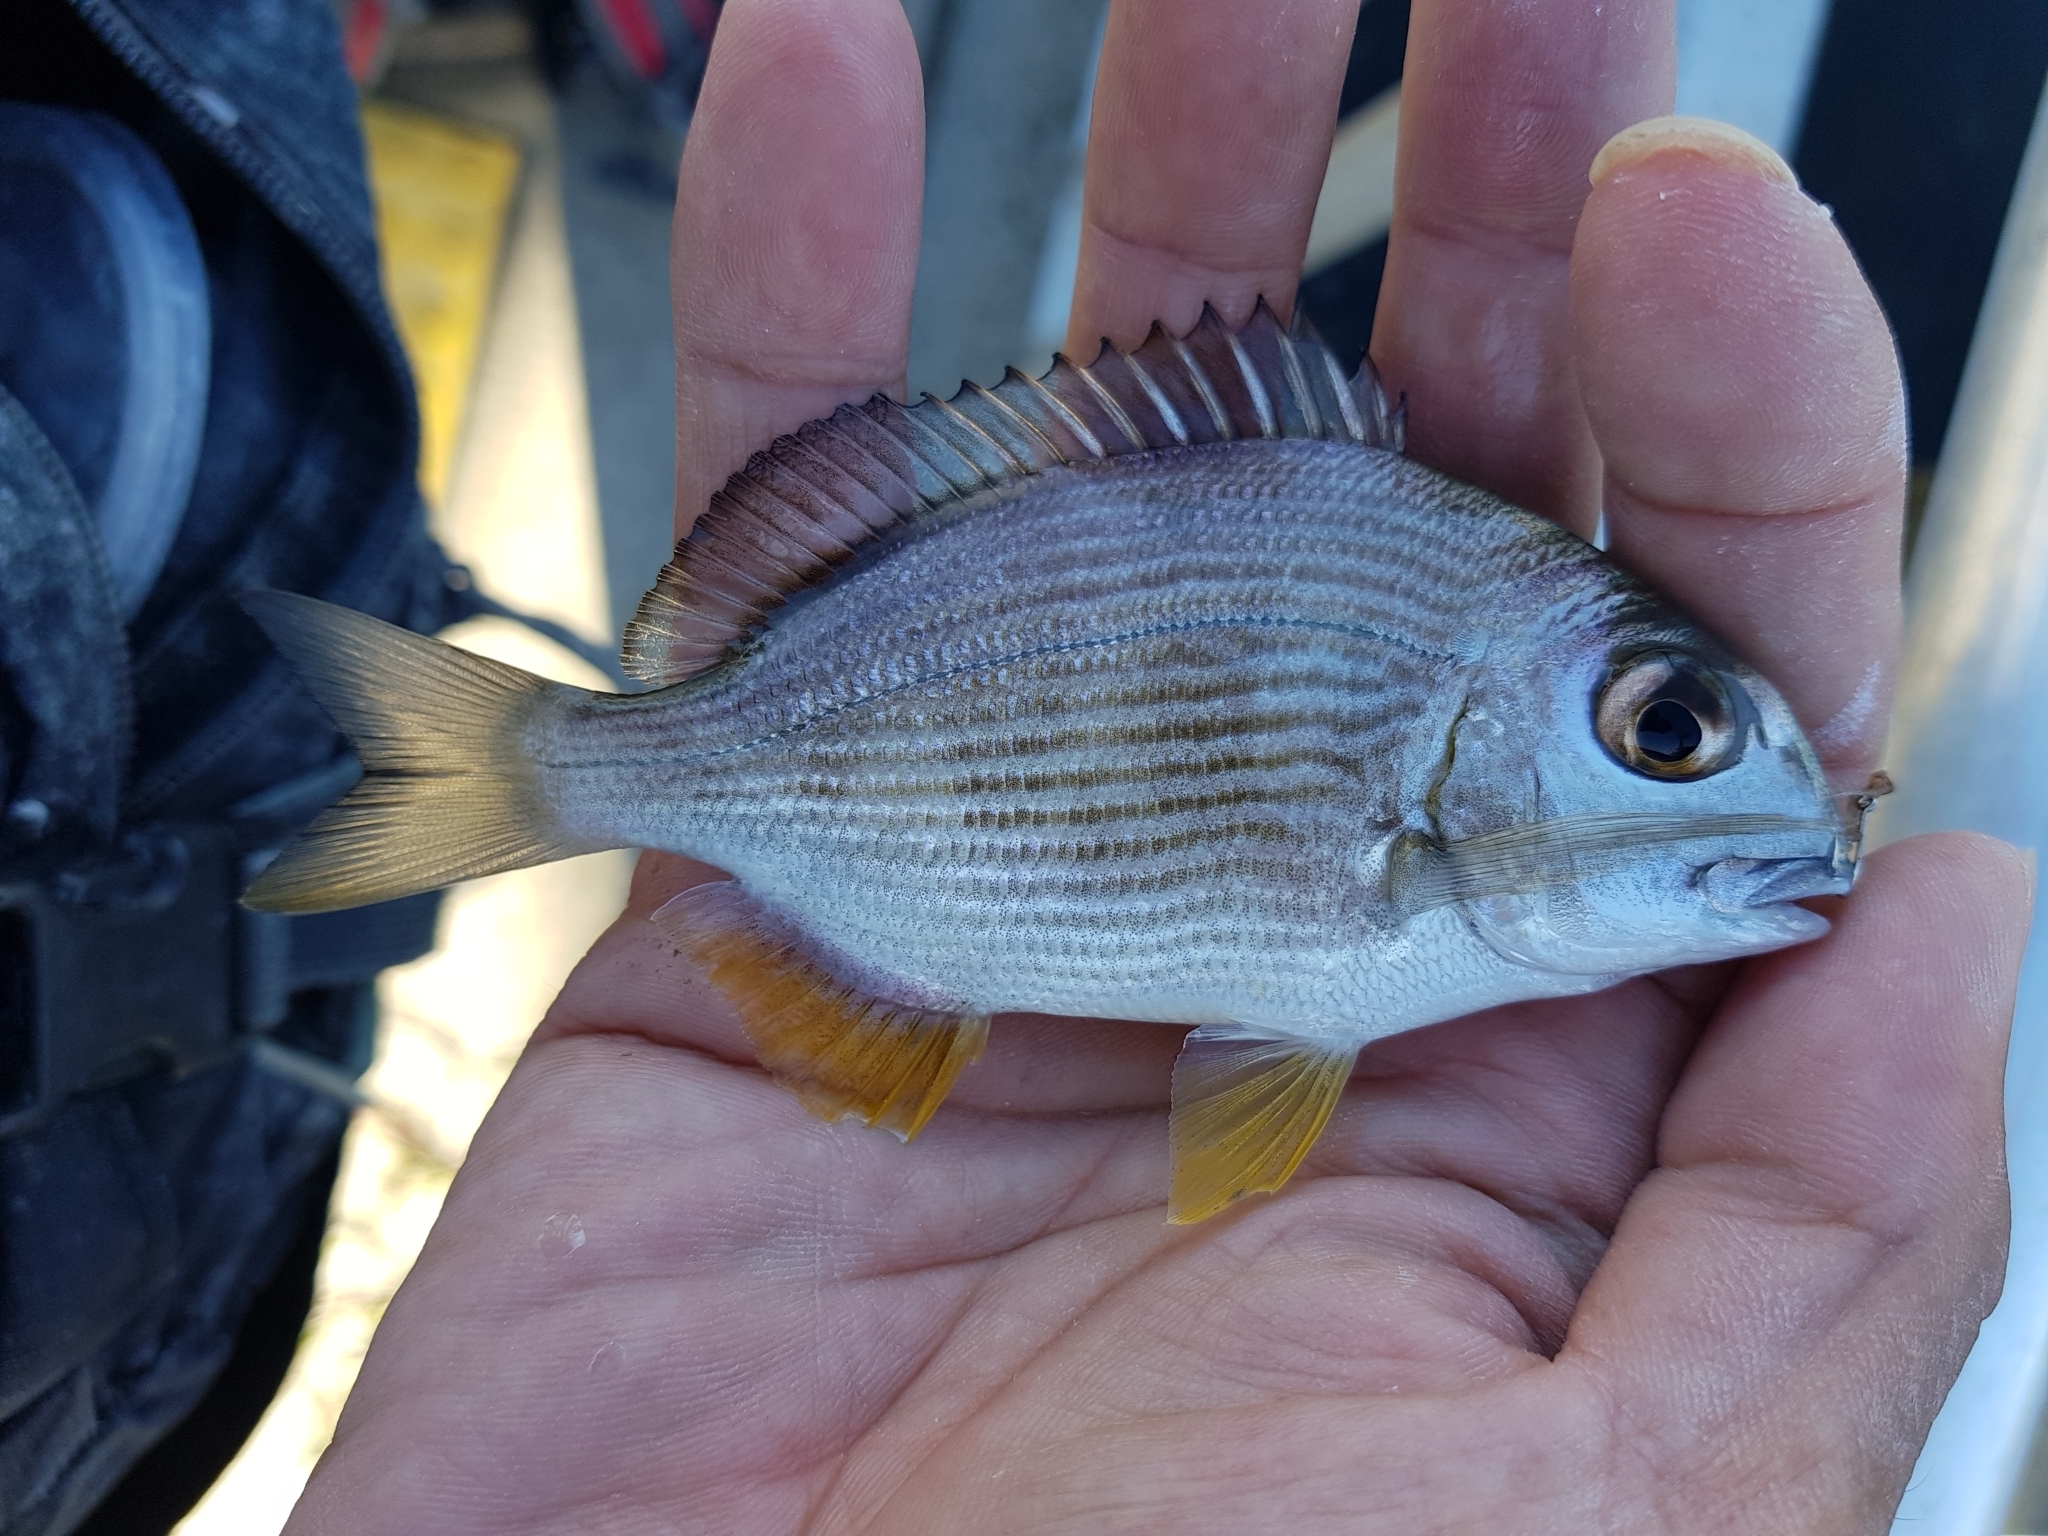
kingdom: Animalia
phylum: Chordata
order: Perciformes
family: Sparidae
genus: Rhabdosargus
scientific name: Rhabdosargus sarba
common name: Goldlined seabream
